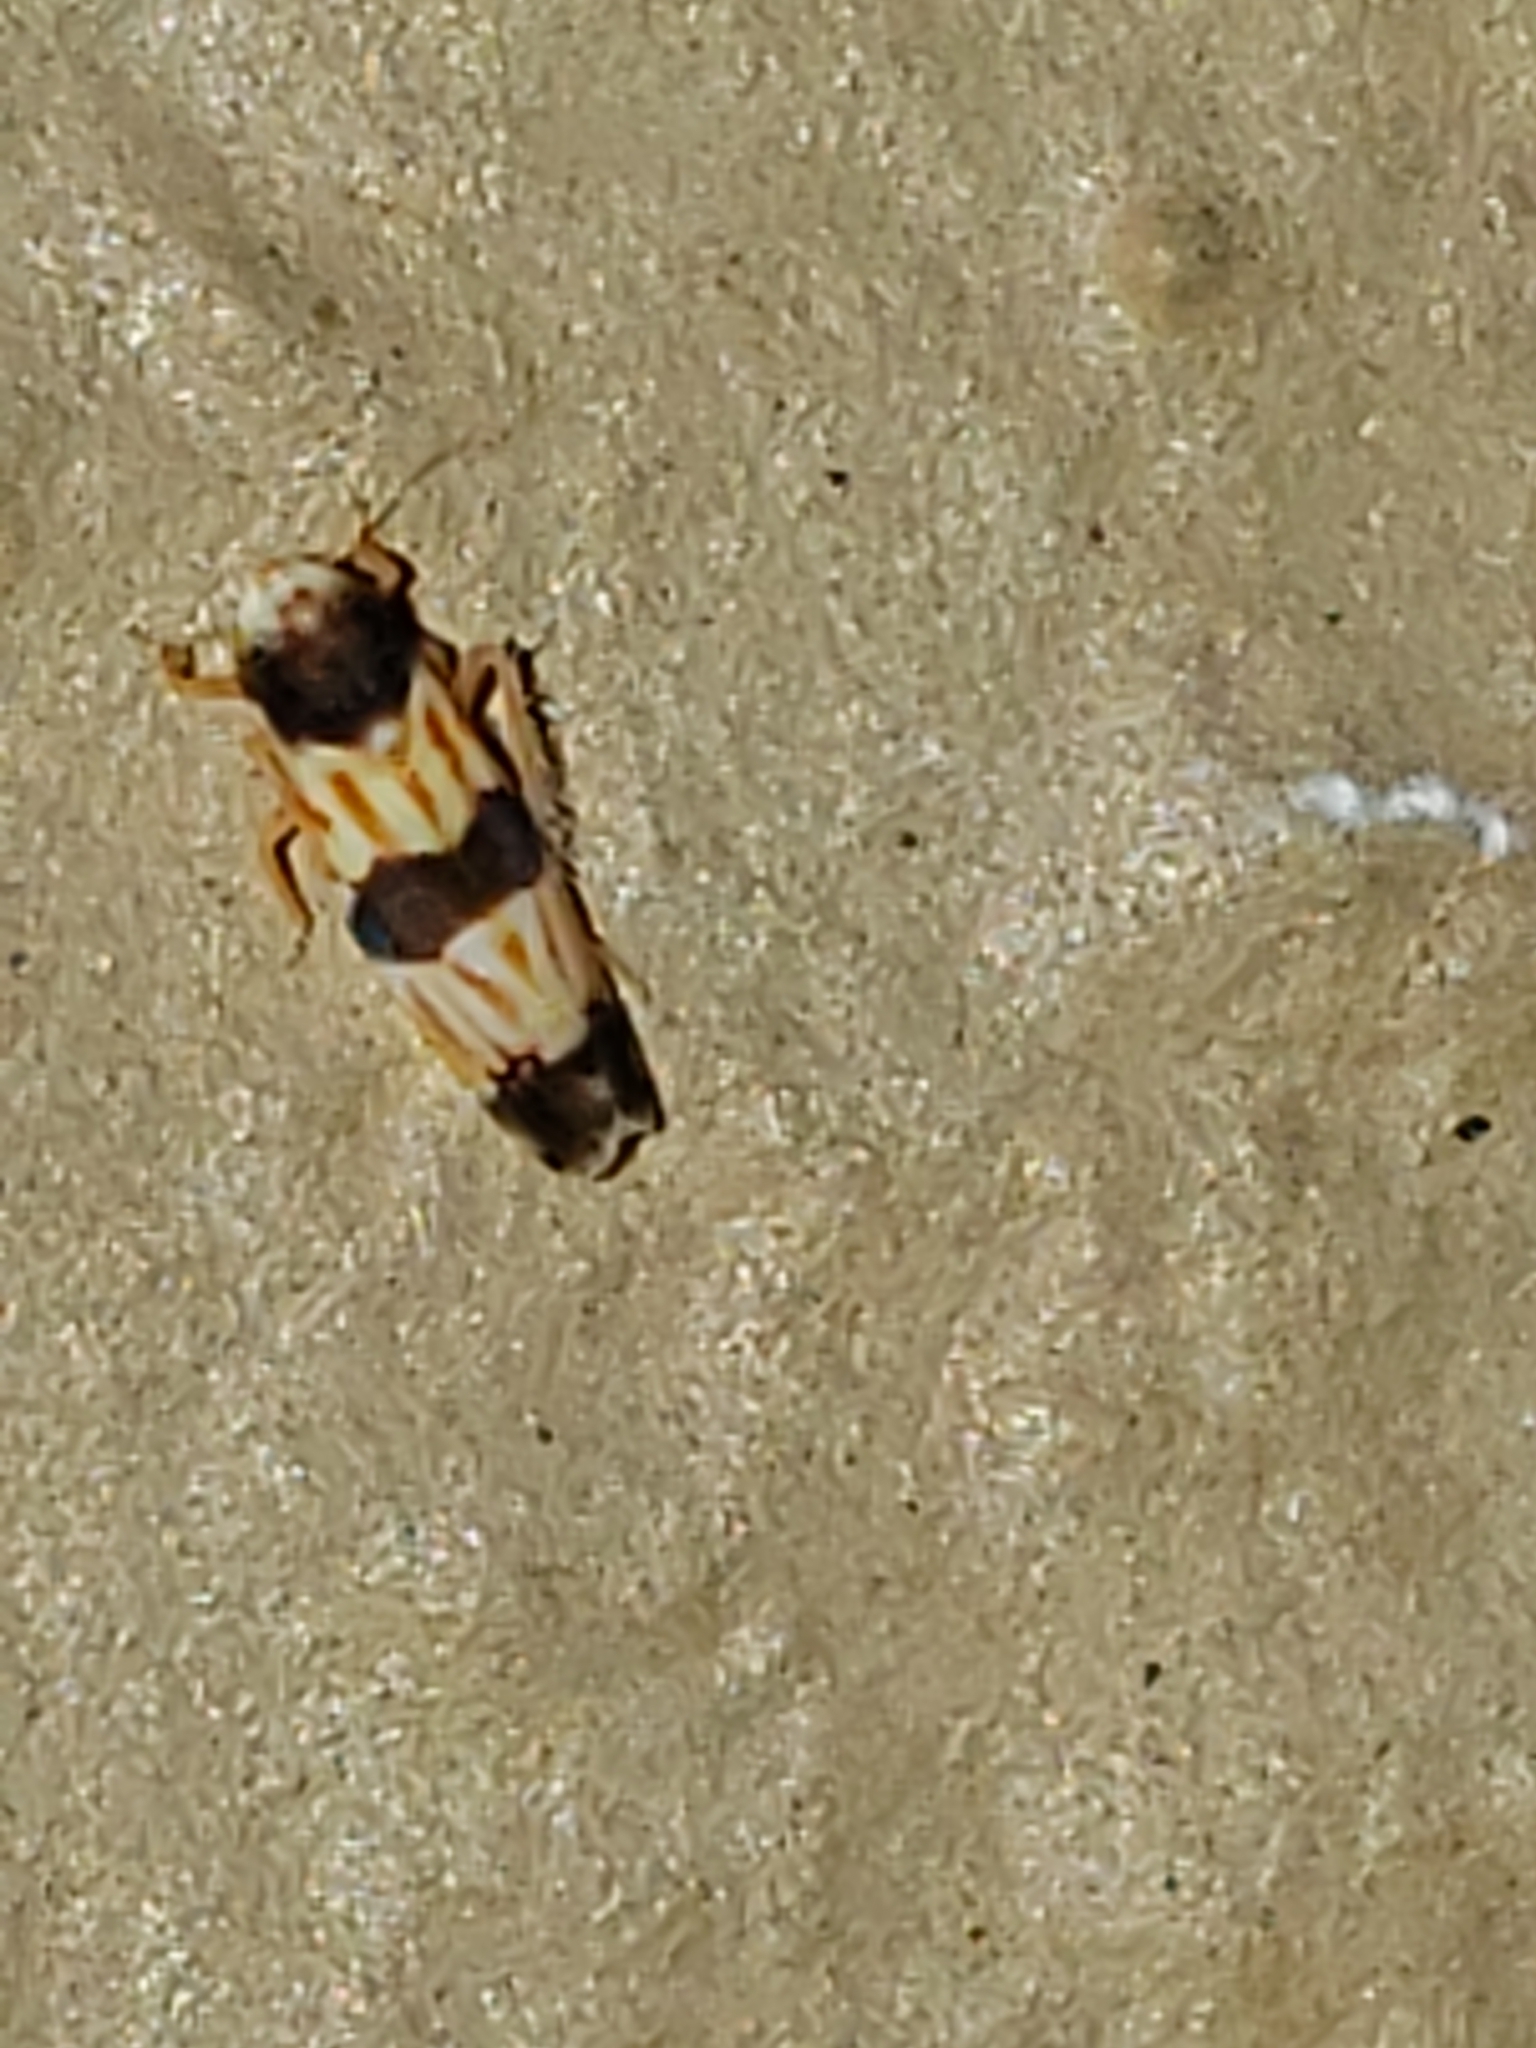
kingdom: Animalia
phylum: Arthropoda
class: Insecta
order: Hemiptera
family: Cicadellidae
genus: Erythroneura
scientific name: Erythroneura tricincta
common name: The threebanded grape leafhopper
